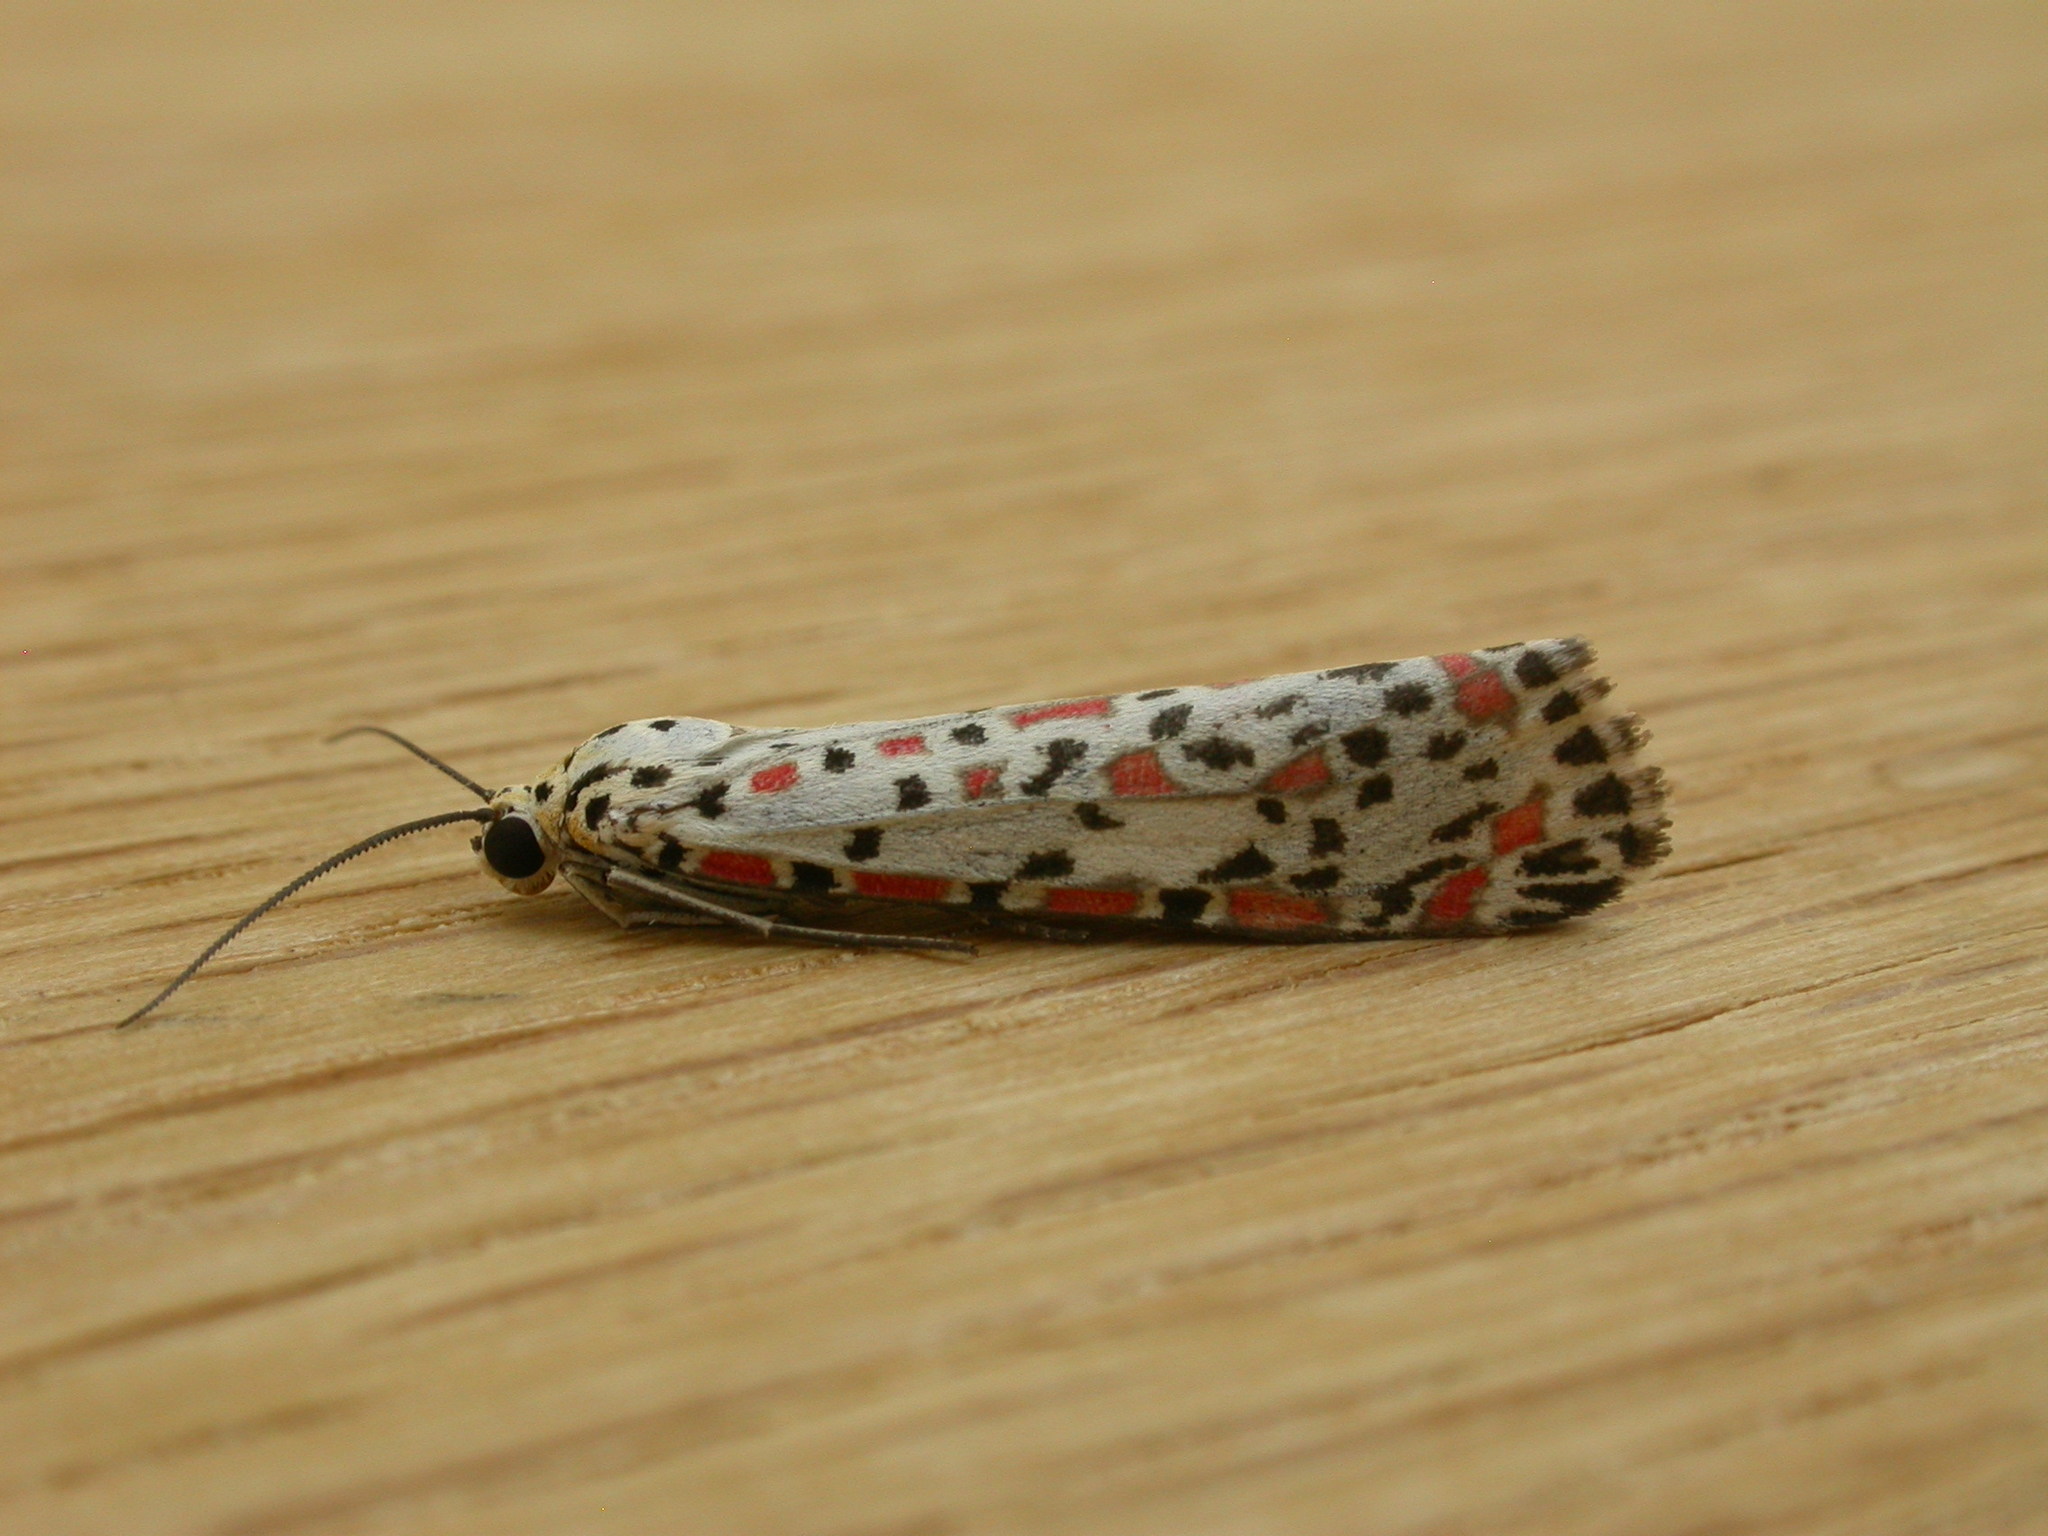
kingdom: Animalia
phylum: Arthropoda
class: Insecta
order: Lepidoptera
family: Erebidae
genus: Utetheisa
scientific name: Utetheisa pulchelloides
